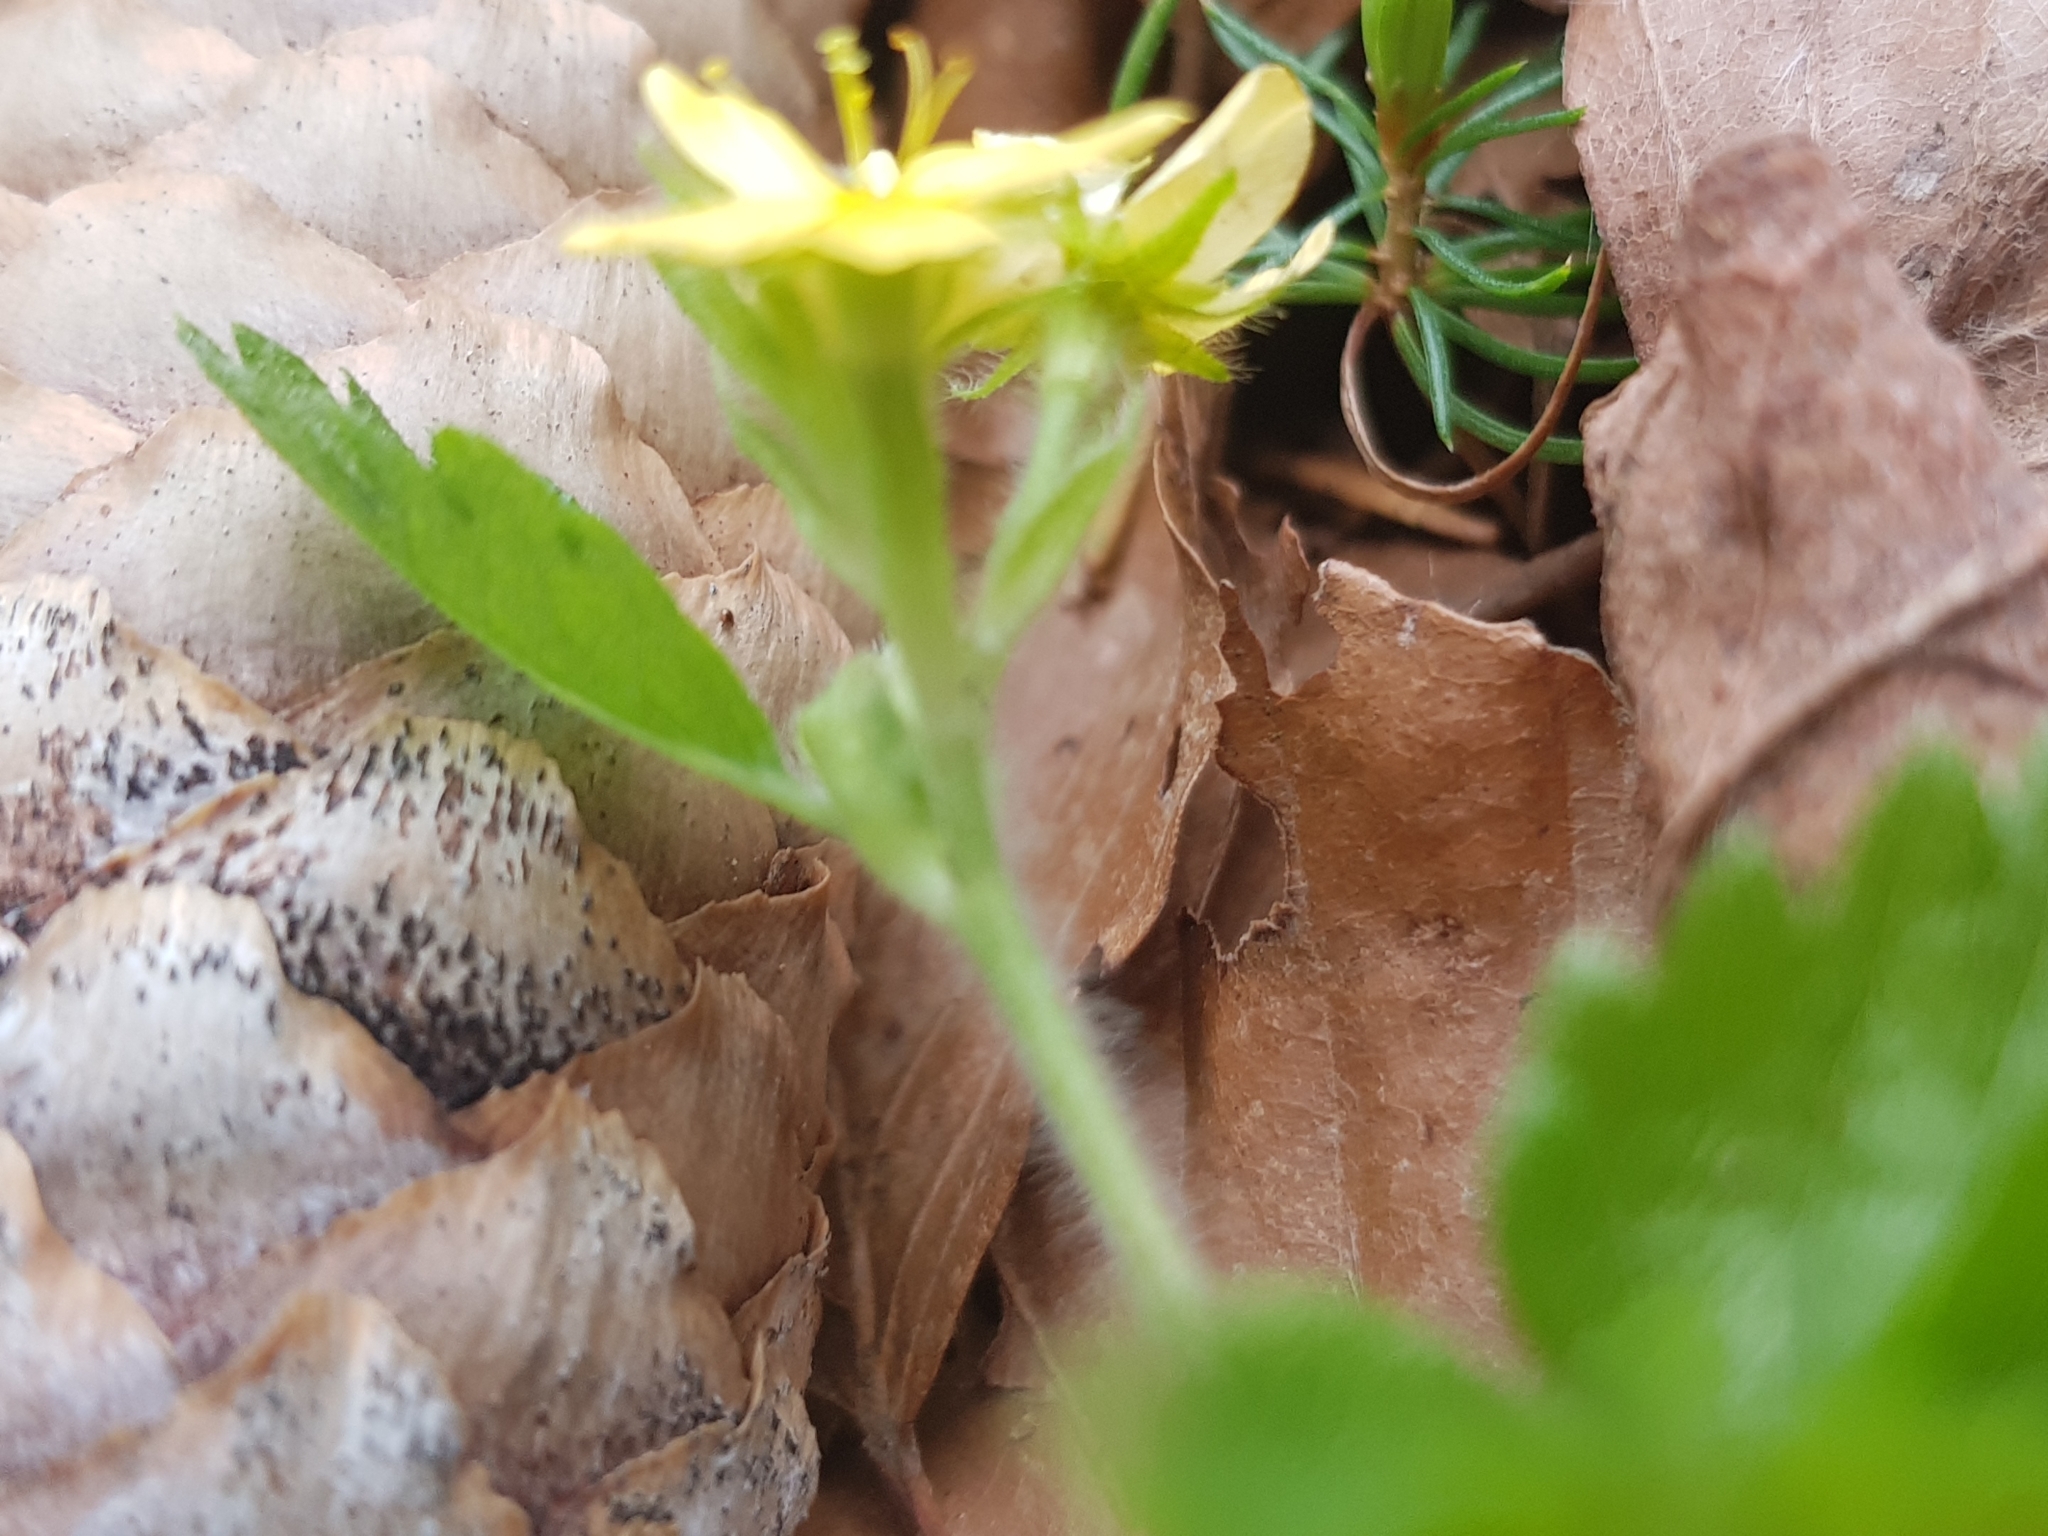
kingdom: Plantae
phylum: Tracheophyta
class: Magnoliopsida
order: Rosales
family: Rosaceae
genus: Aremonia
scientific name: Aremonia agrimonoides
